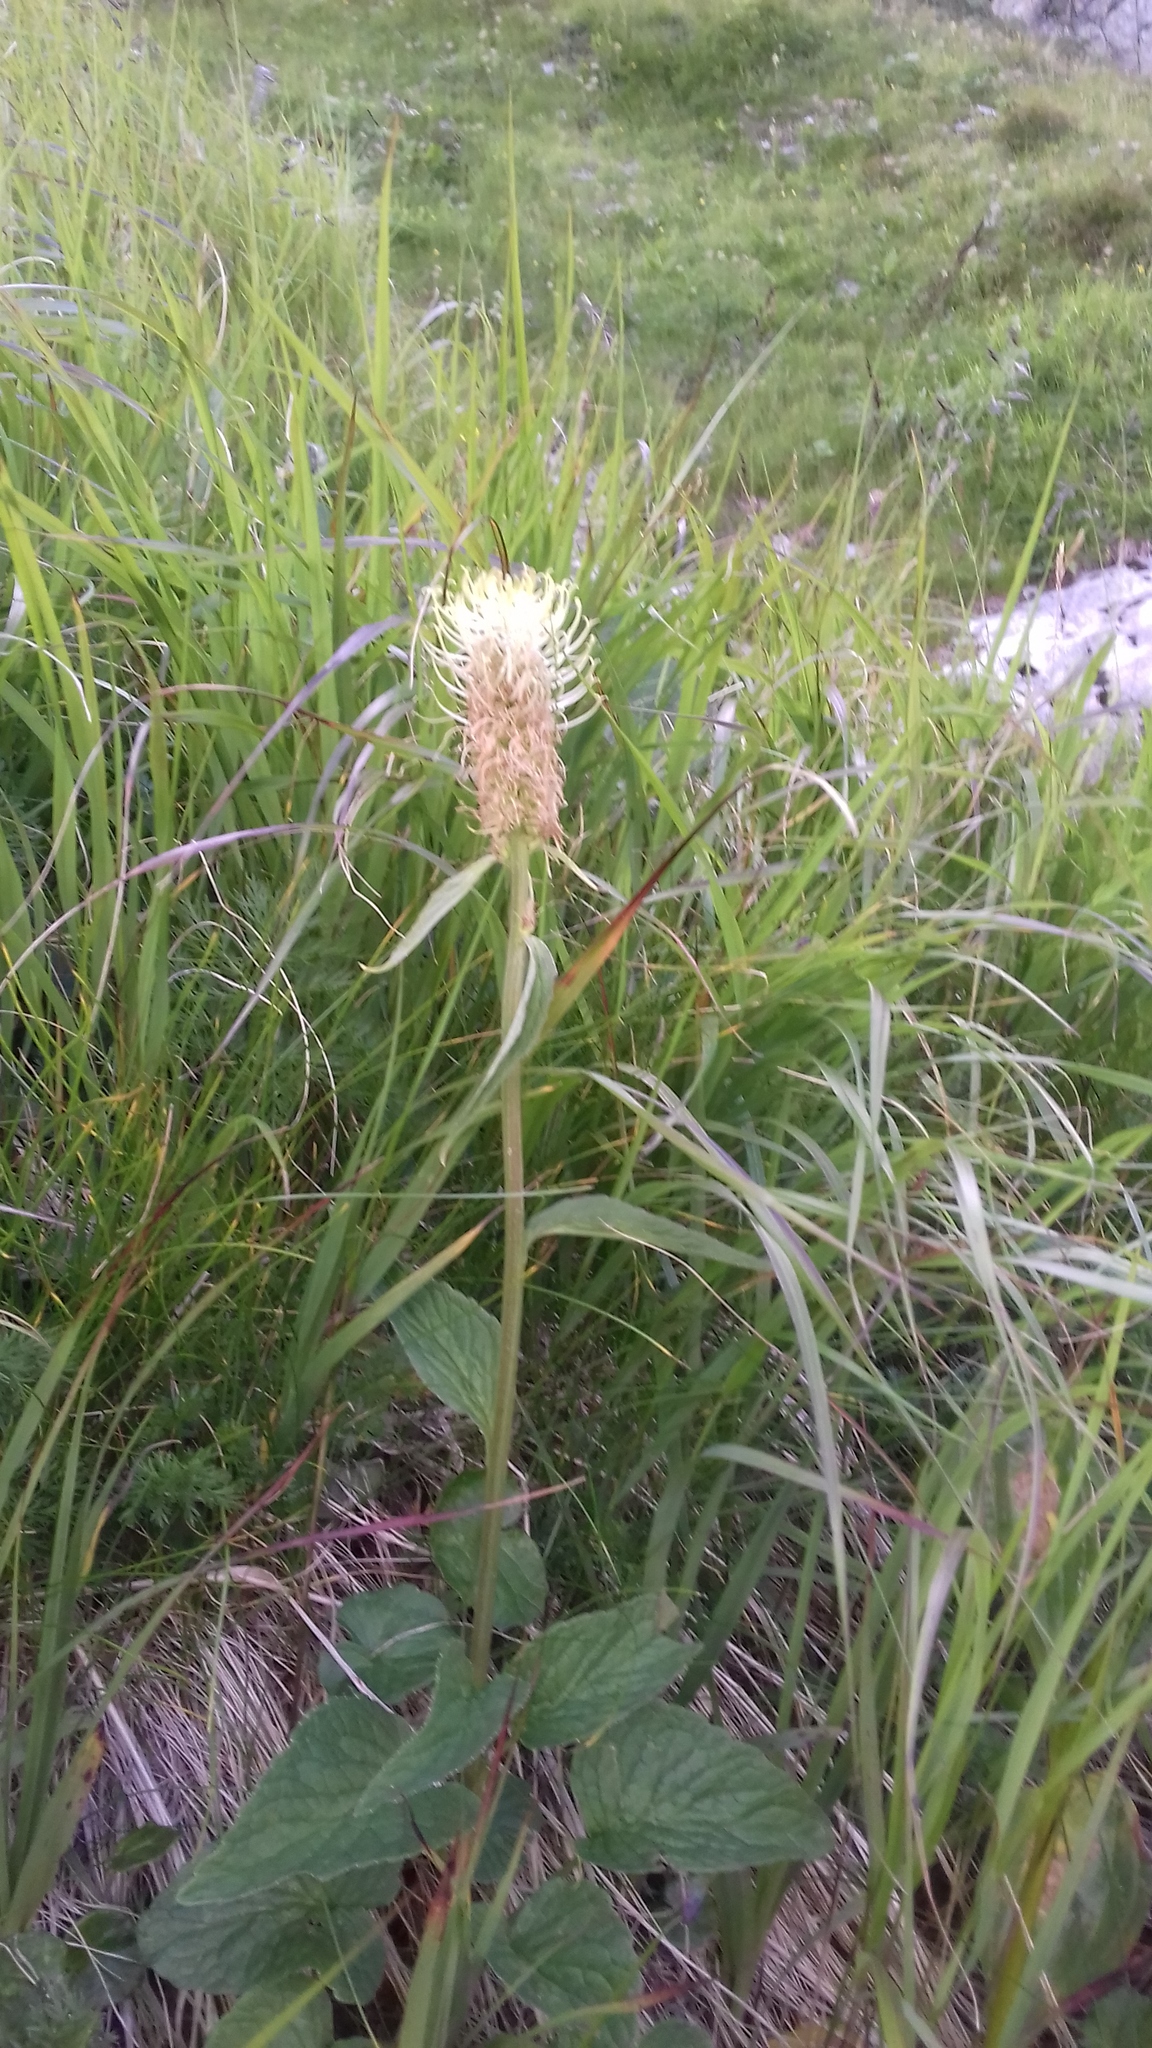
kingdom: Plantae
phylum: Tracheophyta
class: Magnoliopsida
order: Asterales
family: Campanulaceae
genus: Phyteuma
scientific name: Phyteuma spicatum
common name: Spiked rampion
